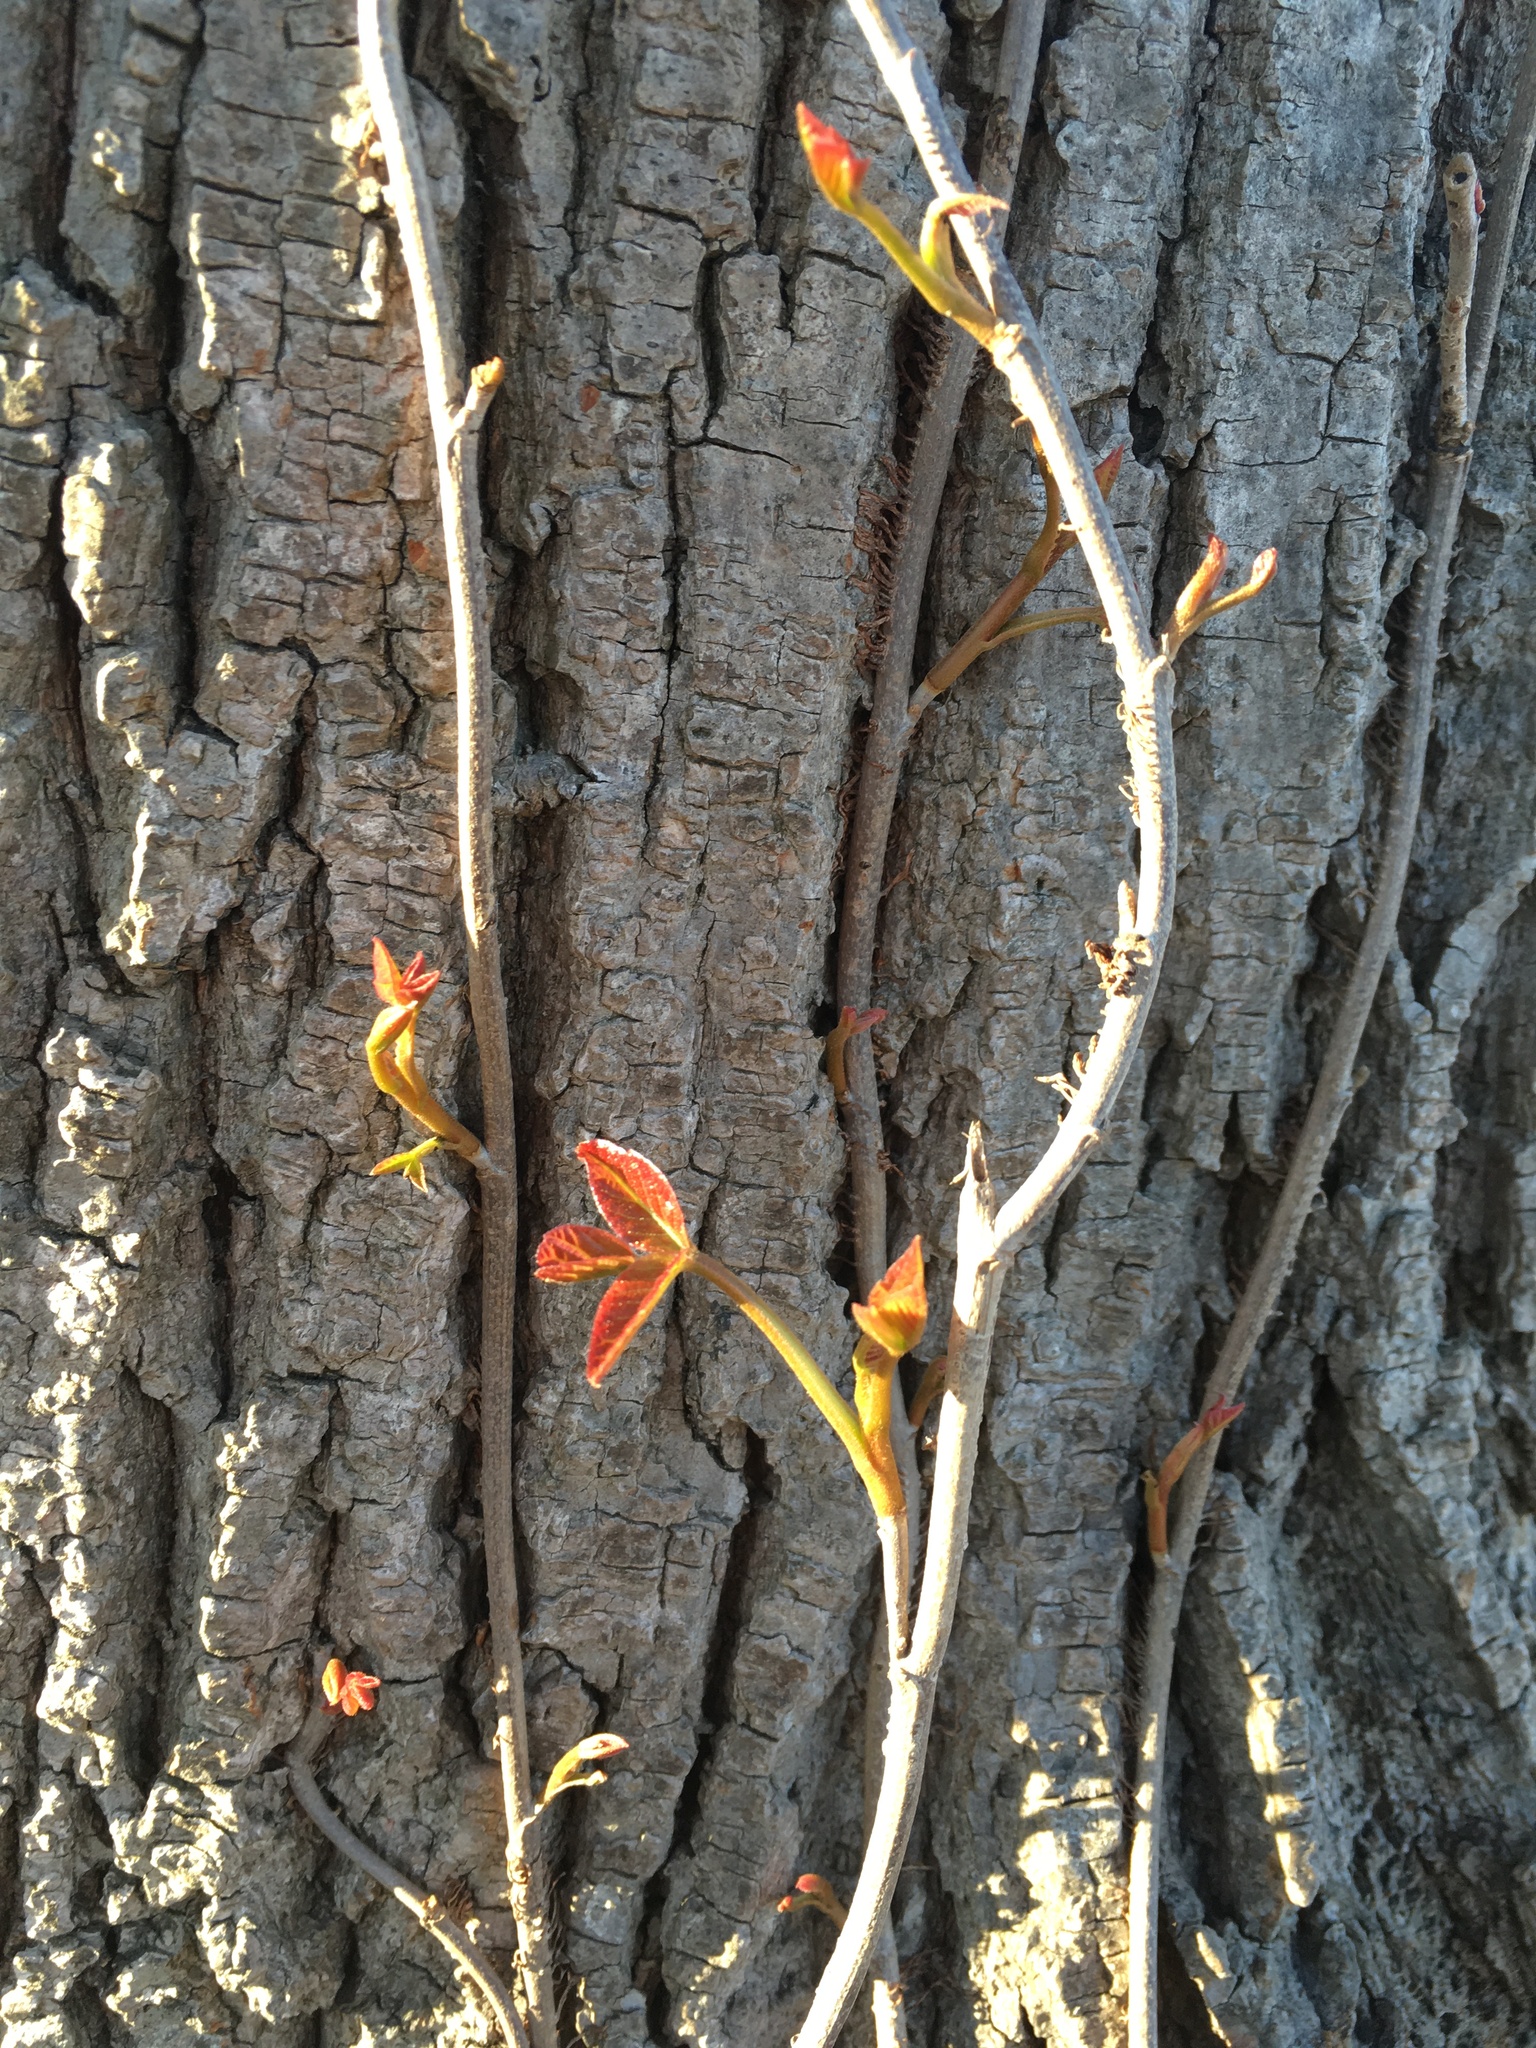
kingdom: Plantae
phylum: Tracheophyta
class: Magnoliopsida
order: Sapindales
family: Anacardiaceae
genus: Toxicodendron
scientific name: Toxicodendron radicans
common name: Poison ivy
